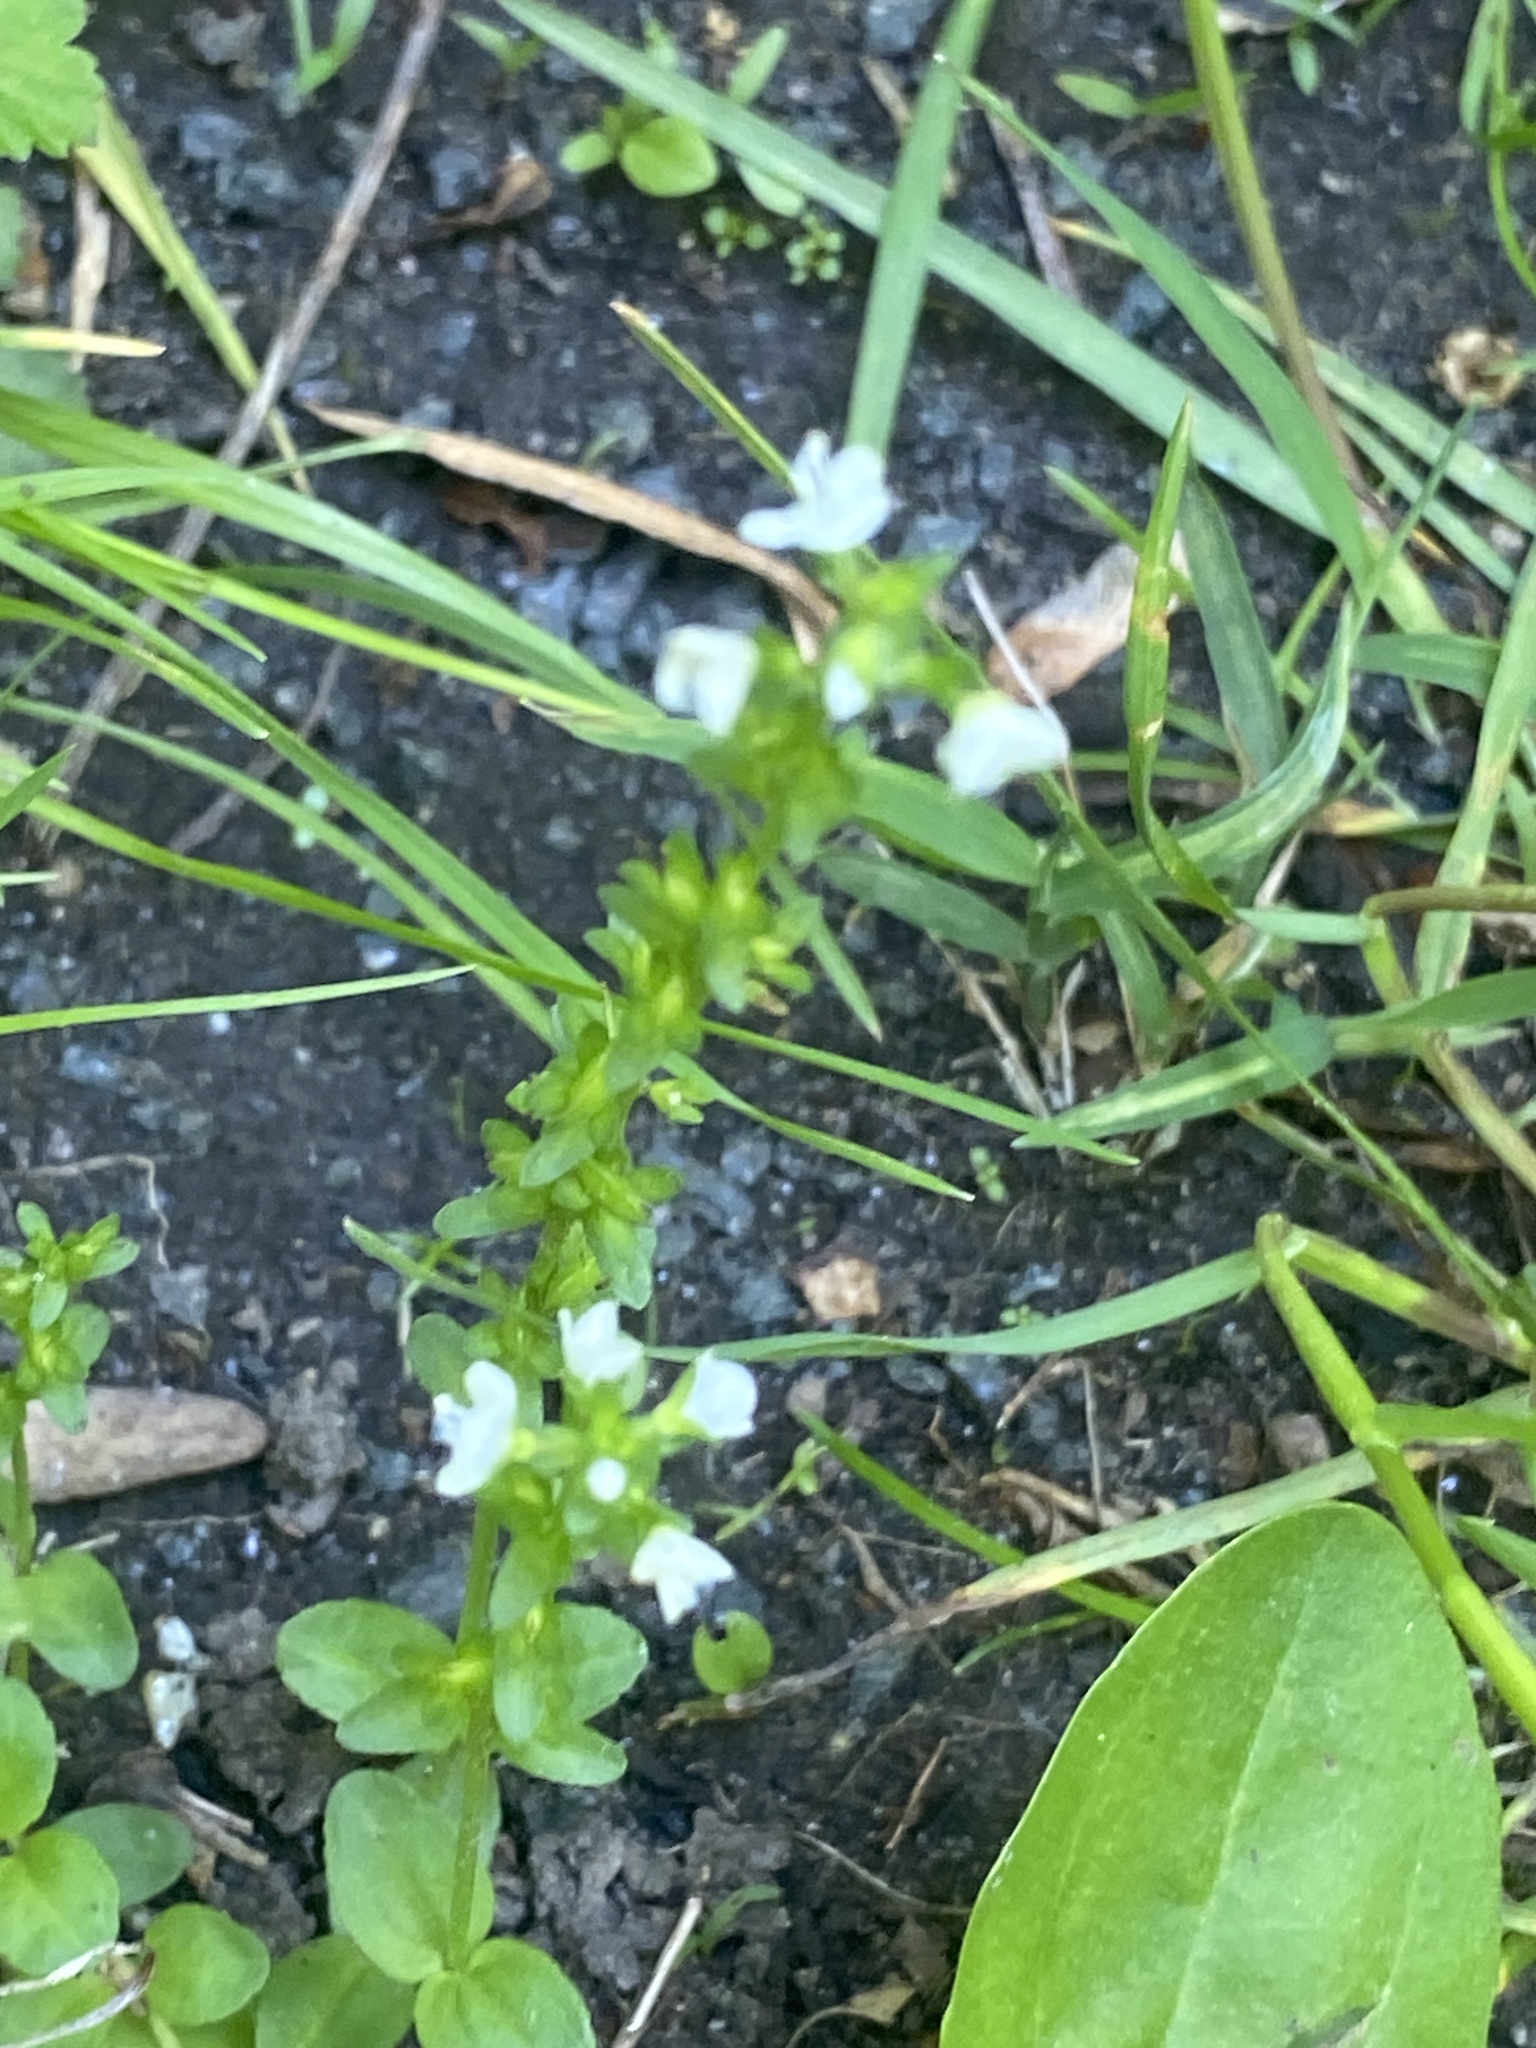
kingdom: Plantae
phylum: Tracheophyta
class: Magnoliopsida
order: Lamiales
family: Plantaginaceae
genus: Veronica
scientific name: Veronica serpyllifolia
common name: Thyme-leaved speedwell
